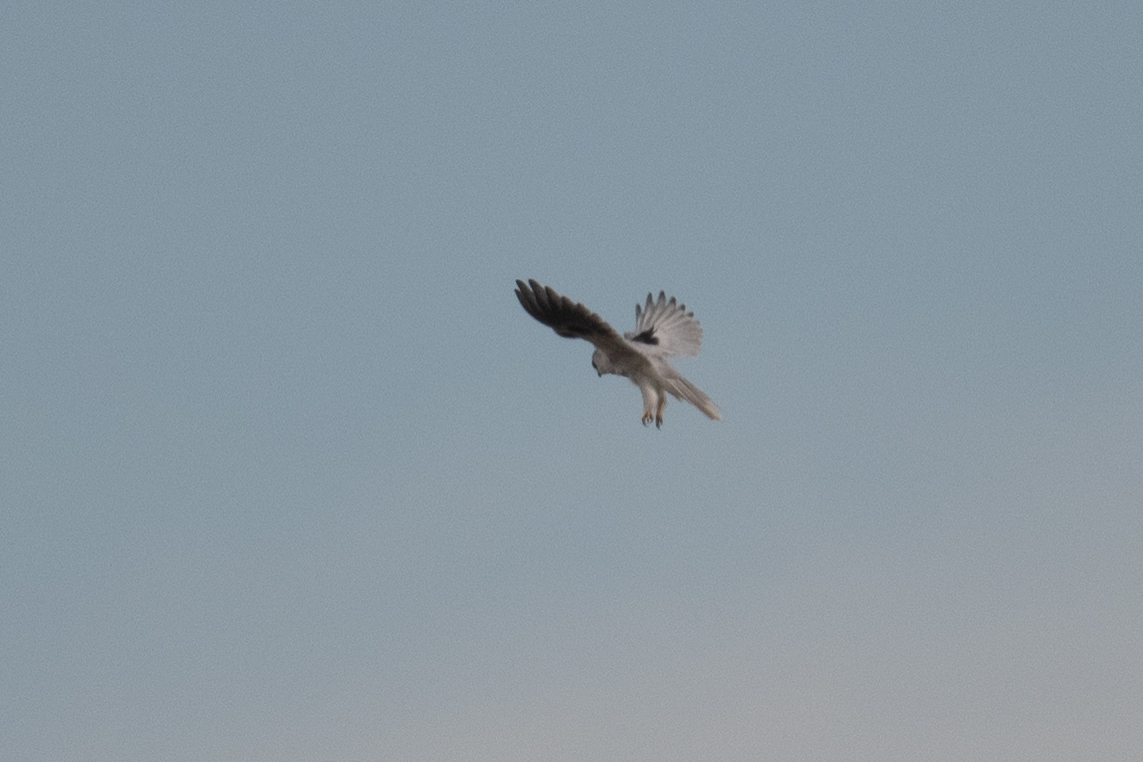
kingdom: Animalia
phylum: Chordata
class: Aves
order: Accipitriformes
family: Accipitridae
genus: Elanus
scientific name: Elanus leucurus
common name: White-tailed kite
